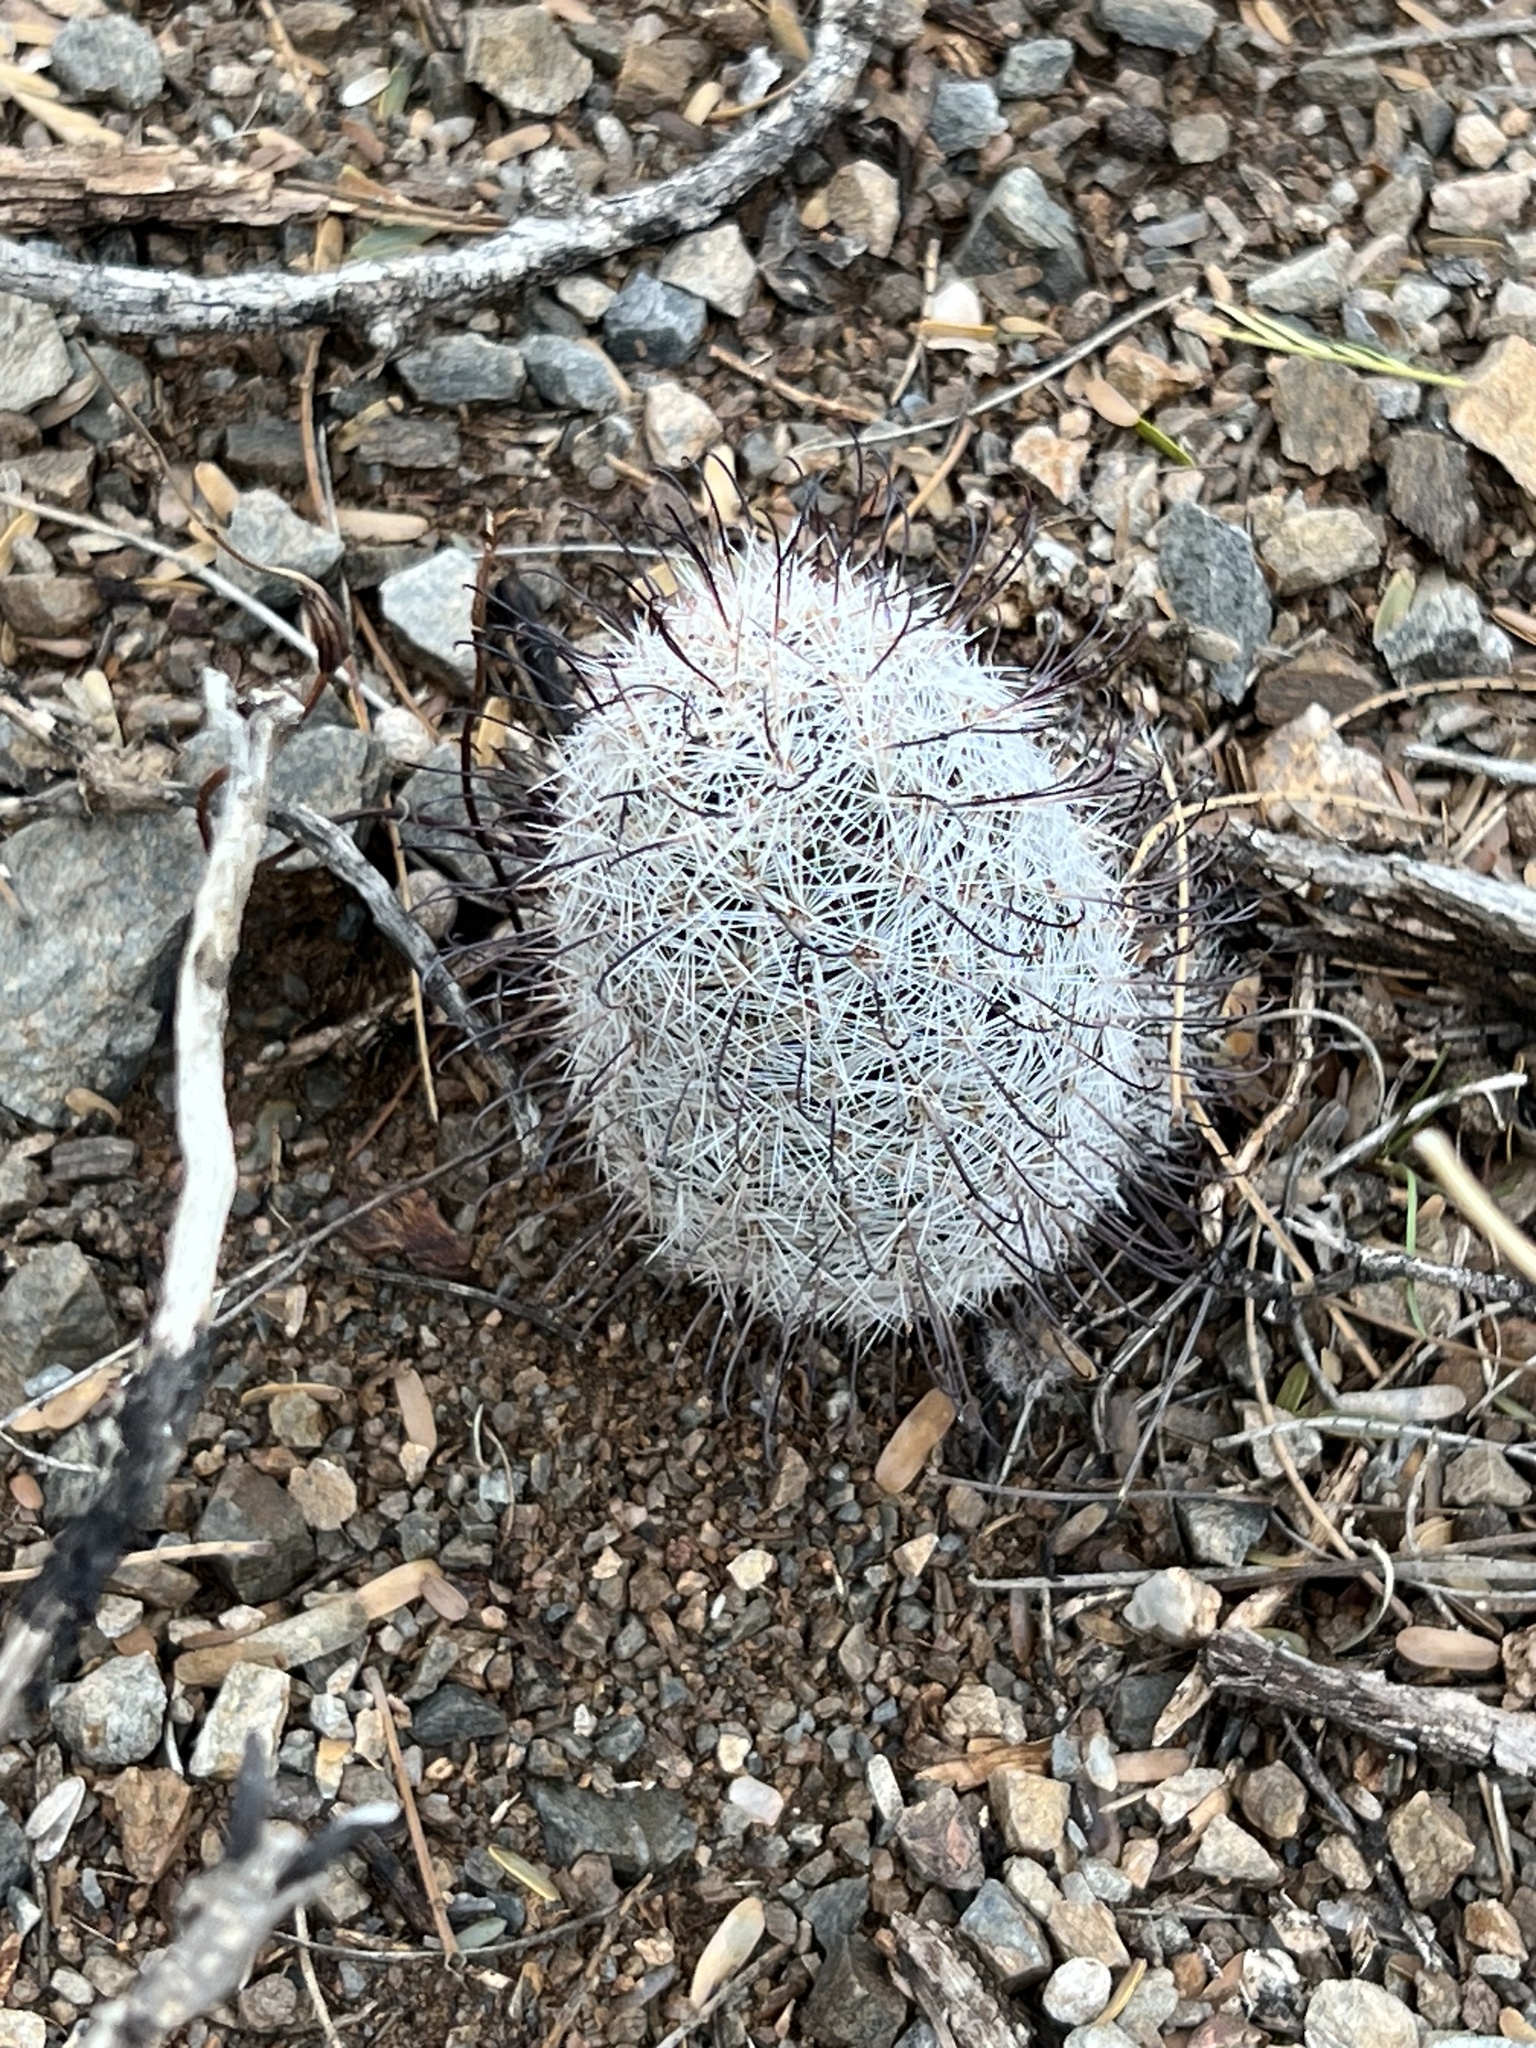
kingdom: Plantae
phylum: Tracheophyta
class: Magnoliopsida
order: Caryophyllales
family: Cactaceae
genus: Cochemiea
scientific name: Cochemiea grahamii
